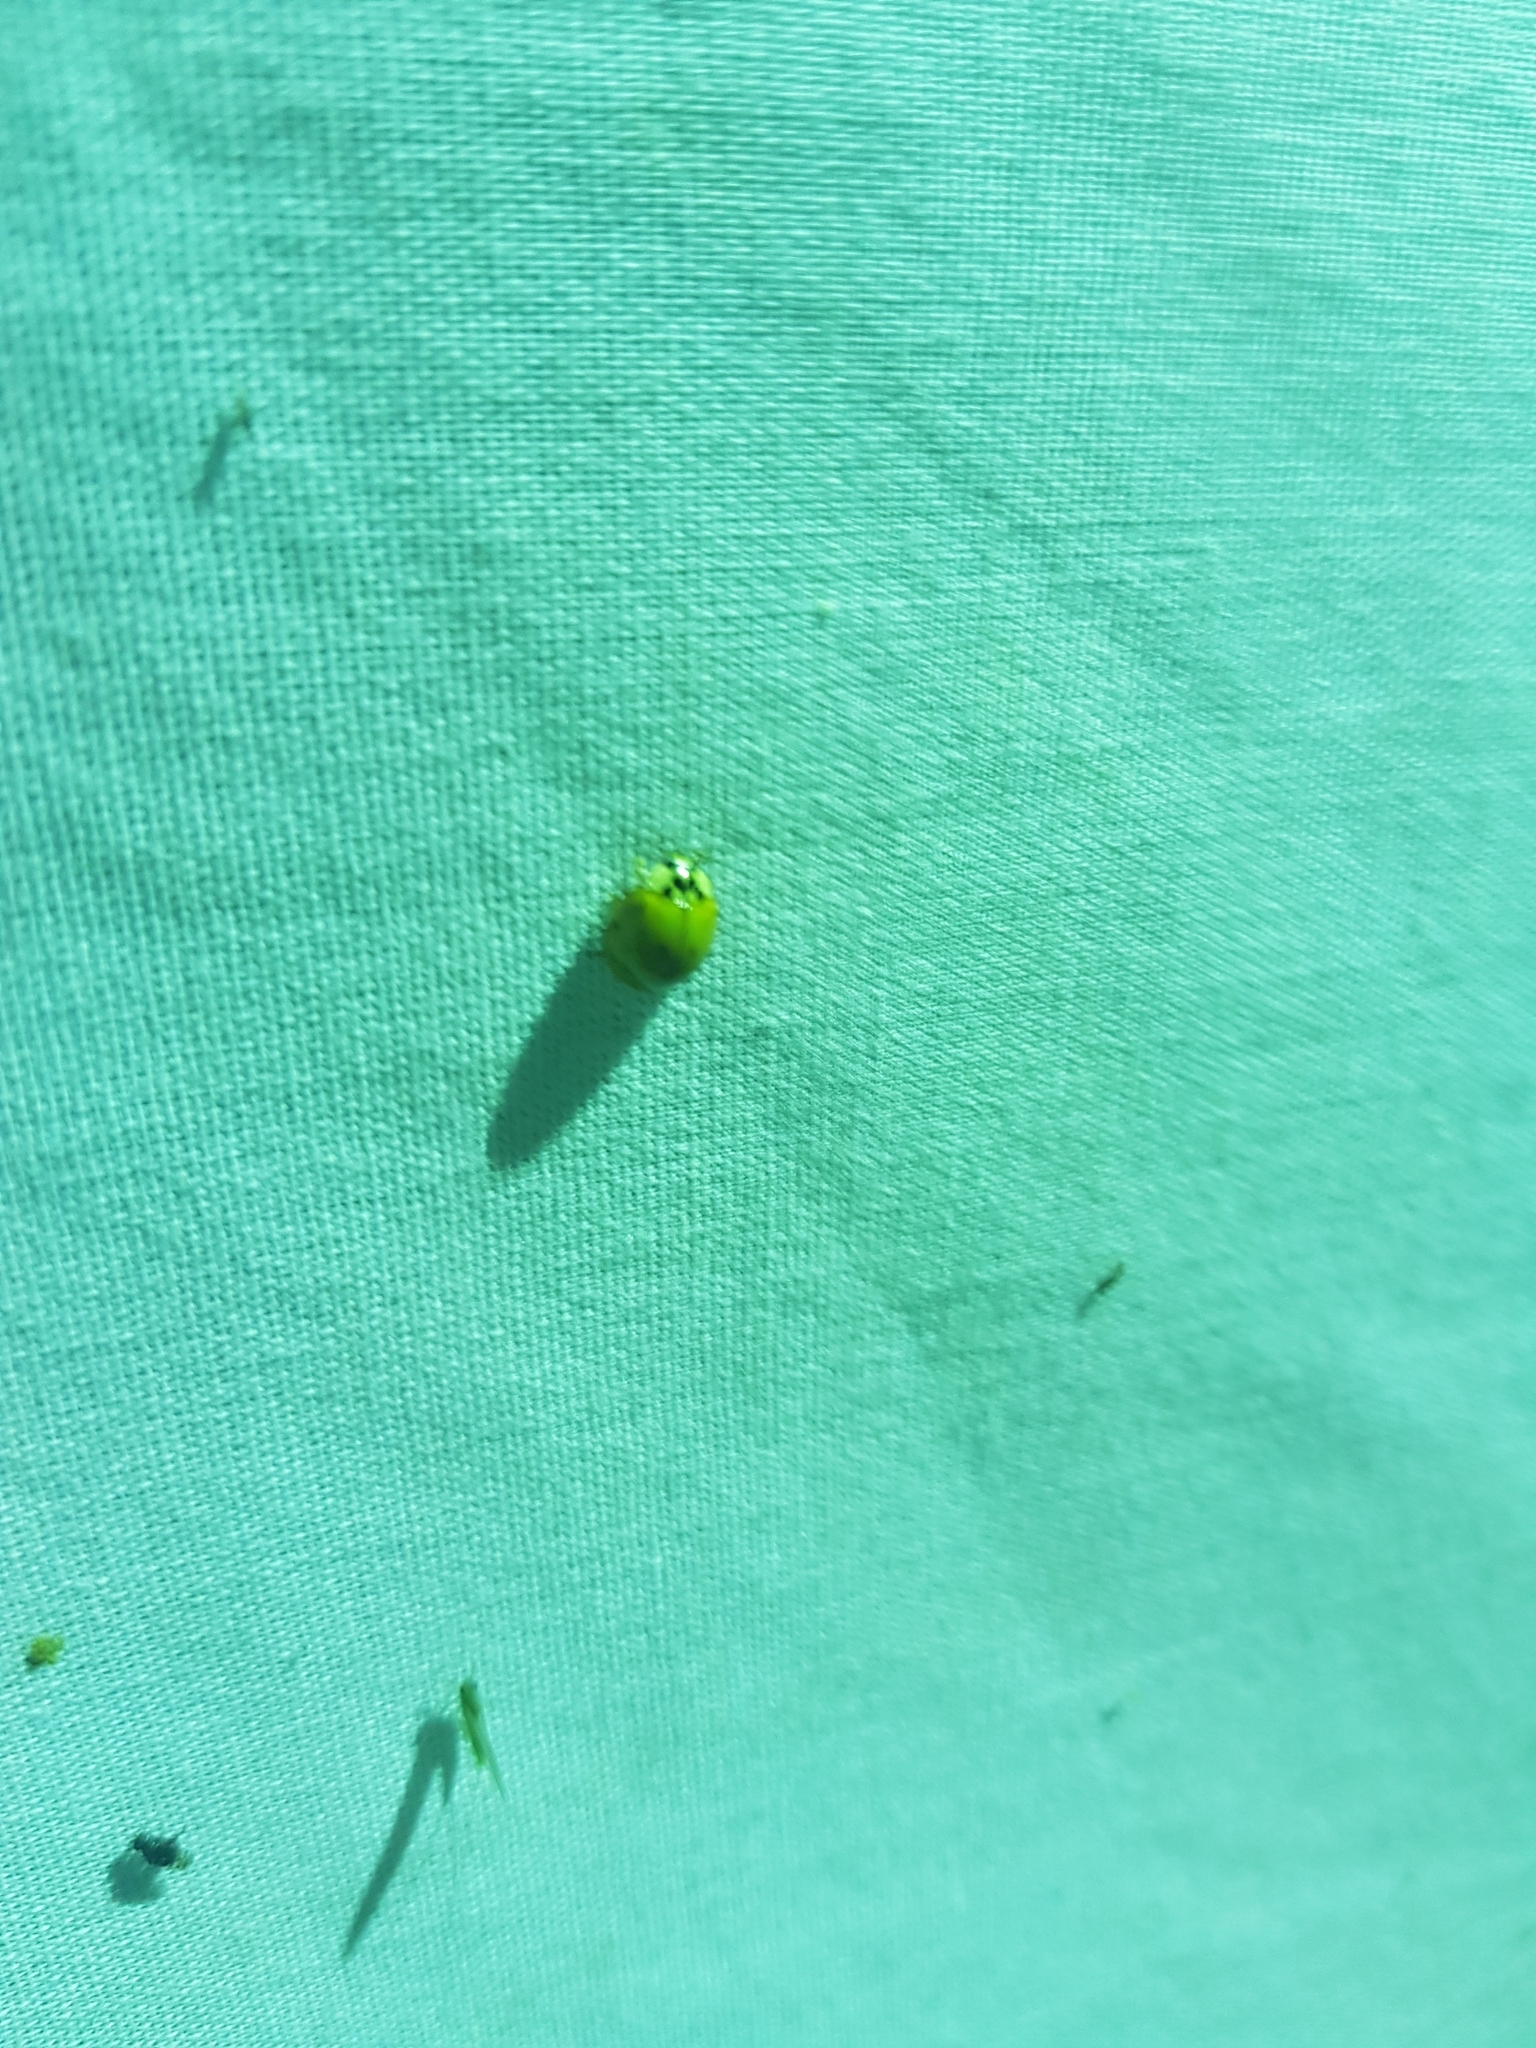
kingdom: Animalia
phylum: Arthropoda
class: Insecta
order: Coleoptera
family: Coccinellidae
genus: Harmonia
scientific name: Harmonia axyridis
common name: Harlequin ladybird
